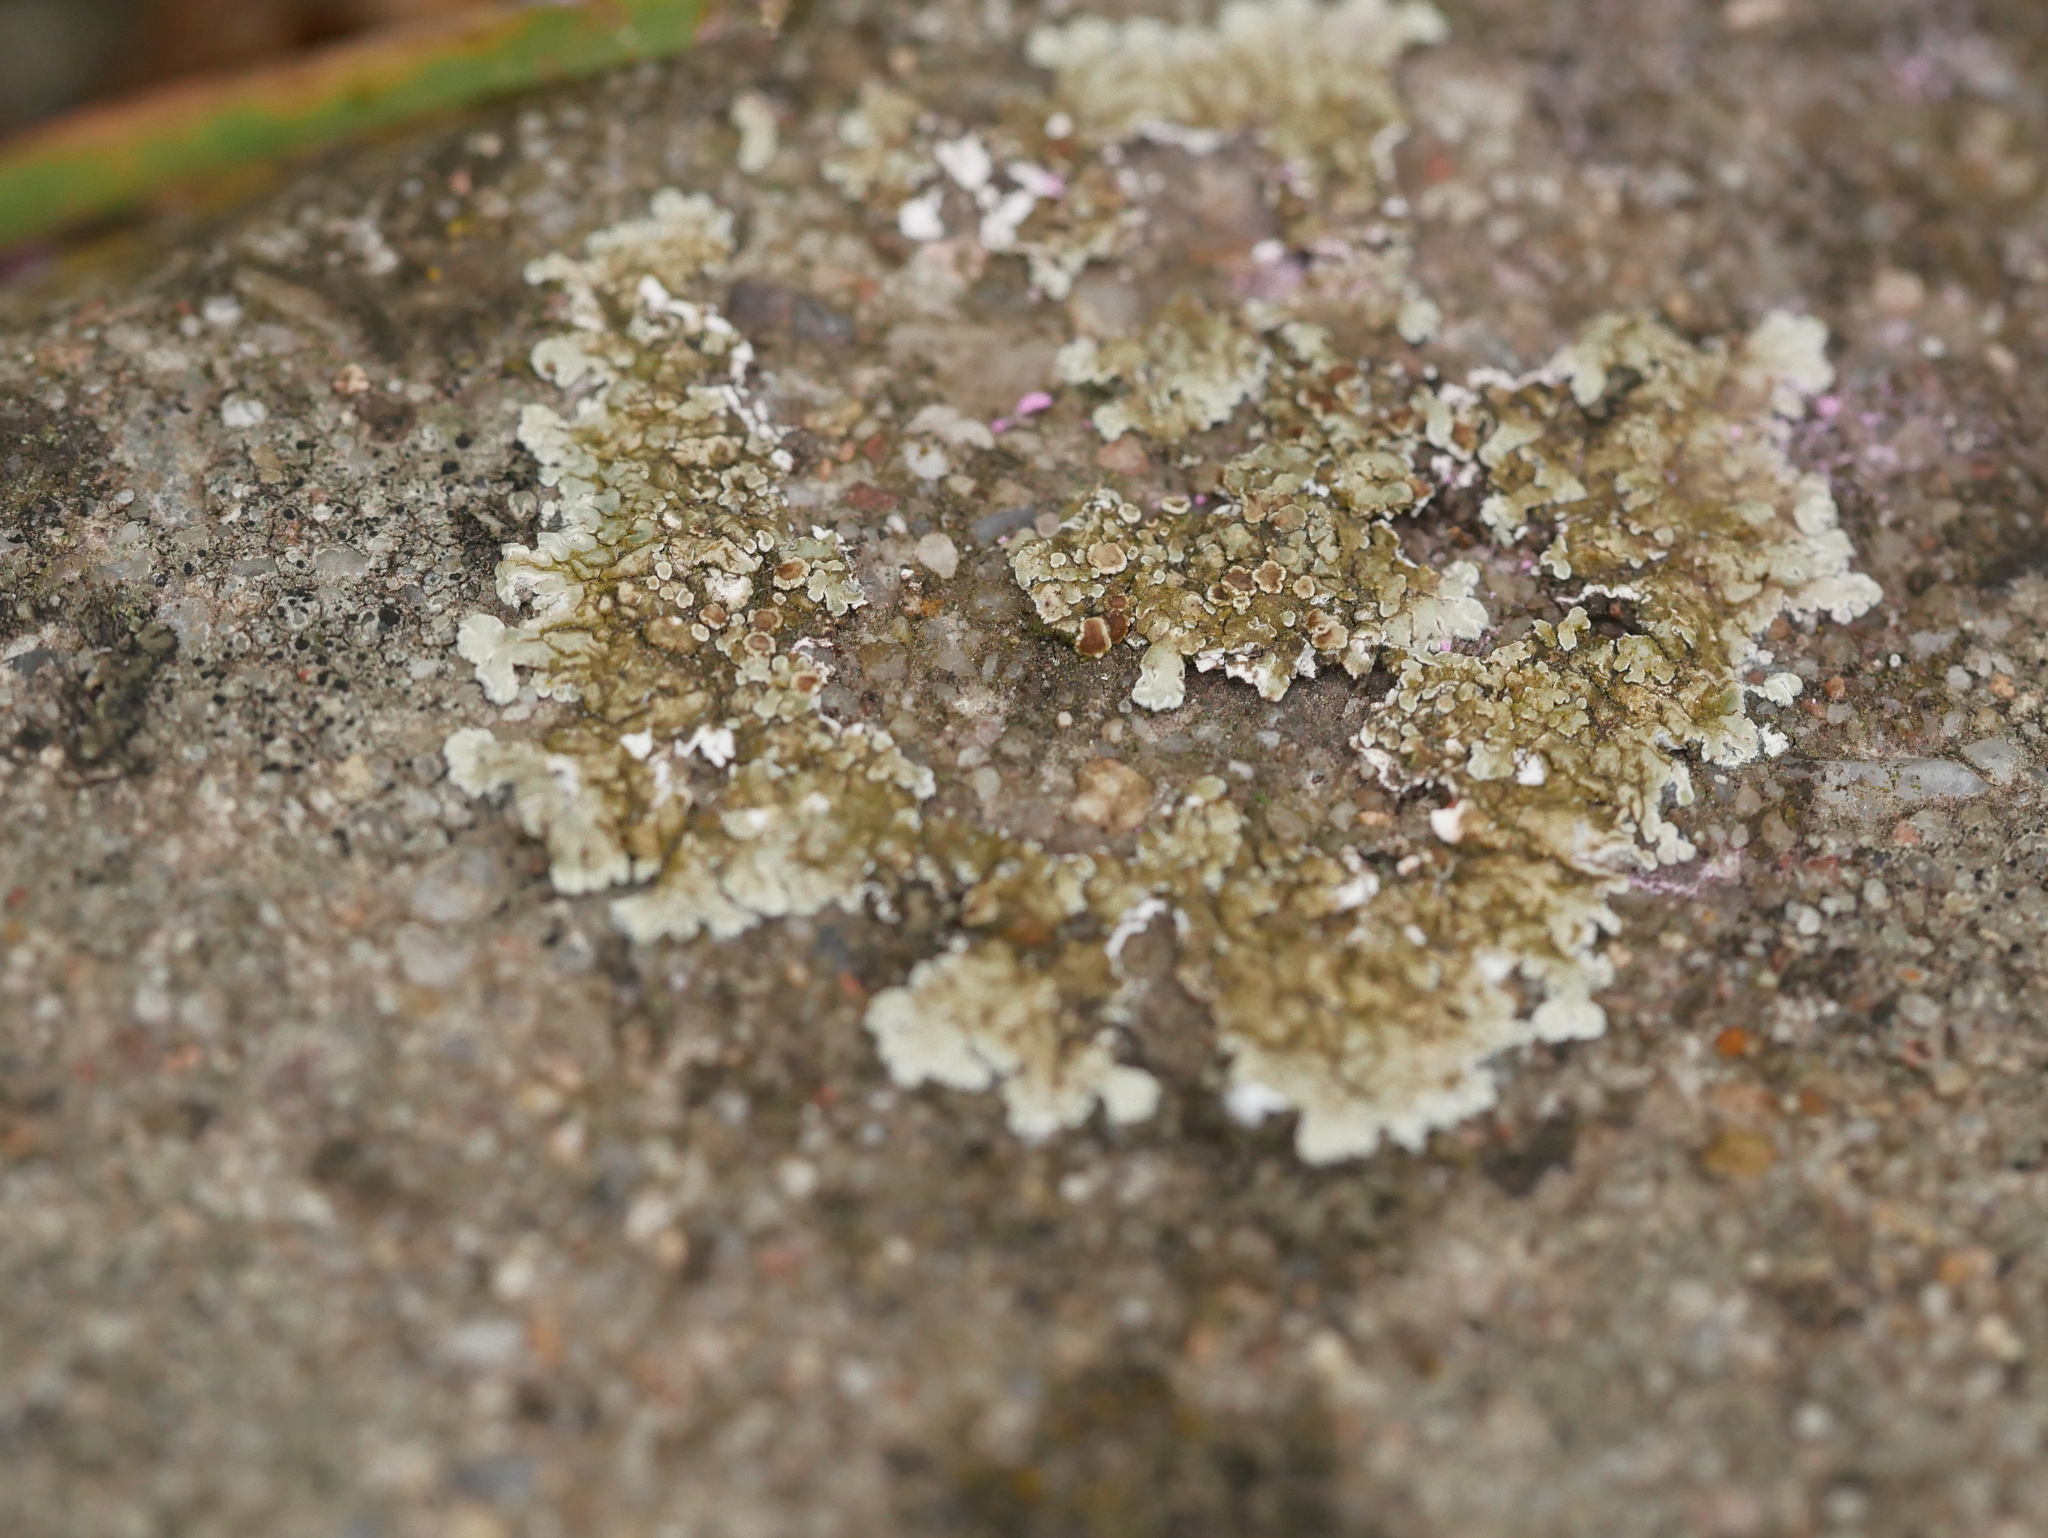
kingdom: Fungi
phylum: Ascomycota
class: Lecanoromycetes
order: Lecanorales
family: Lecanoraceae
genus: Protoparmeliopsis
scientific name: Protoparmeliopsis muralis
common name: Stonewall rim lichen
